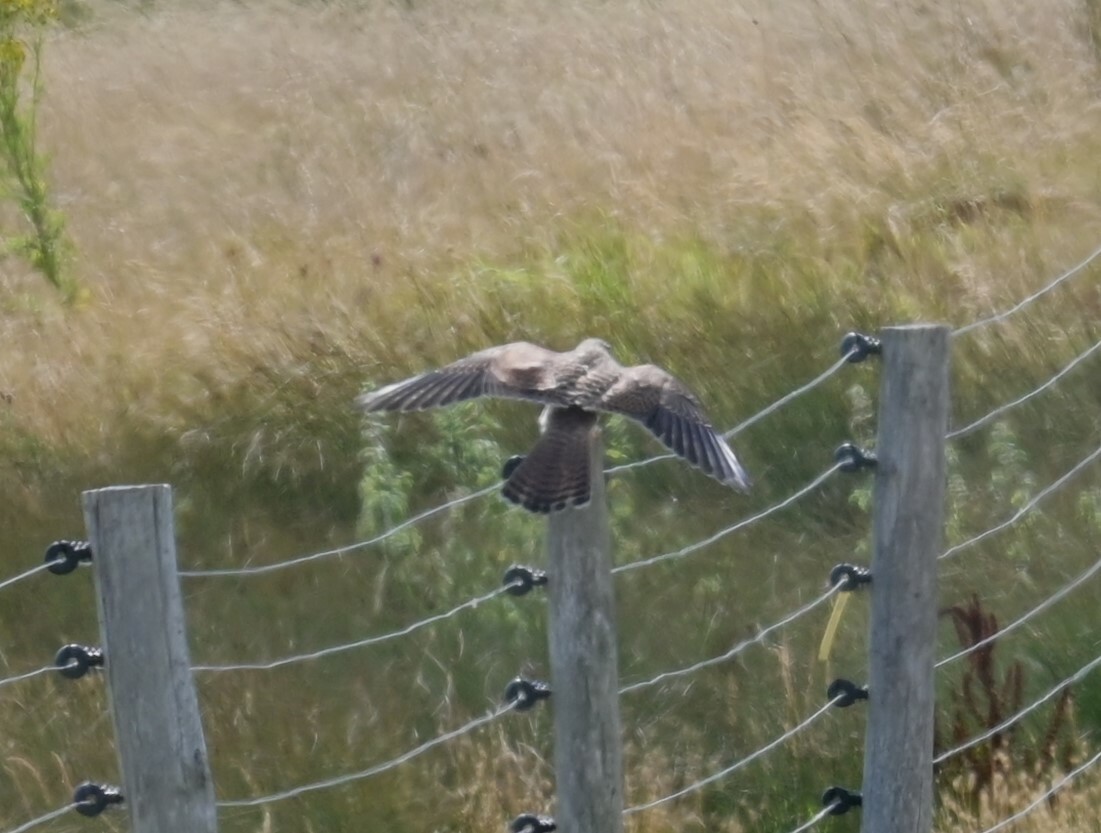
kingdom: Animalia
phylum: Chordata
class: Aves
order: Falconiformes
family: Falconidae
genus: Falco
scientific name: Falco tinnunculus
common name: Common kestrel
